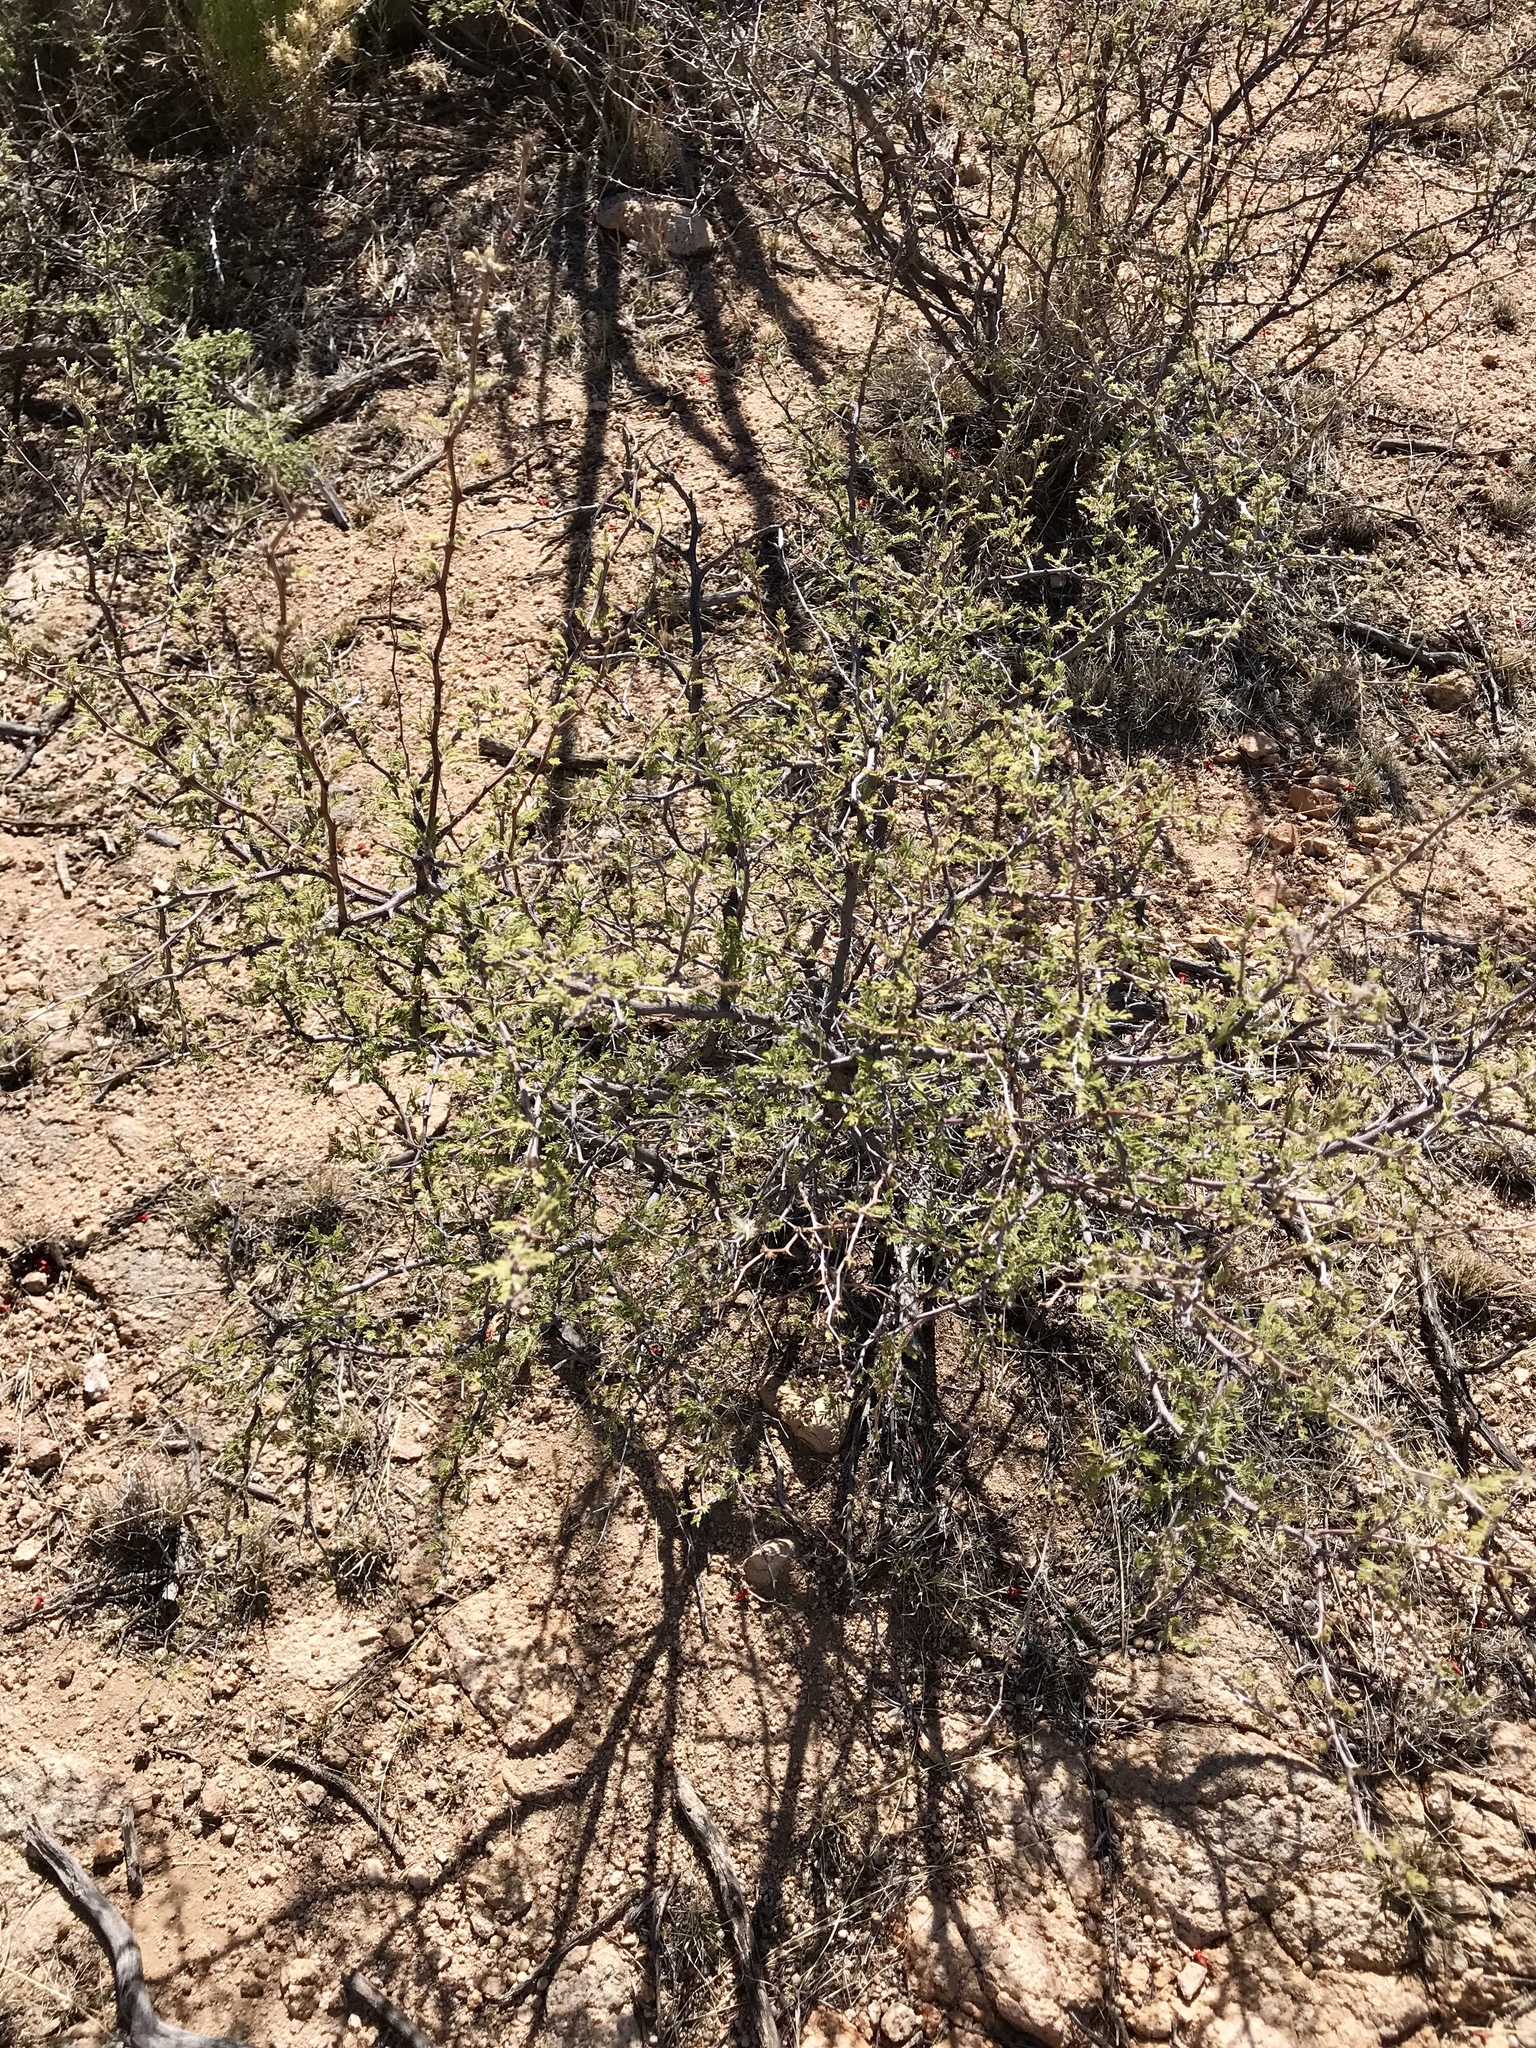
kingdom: Plantae
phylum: Tracheophyta
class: Magnoliopsida
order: Fabales
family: Fabaceae
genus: Senegalia
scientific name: Senegalia greggii
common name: Texas-mimosa
